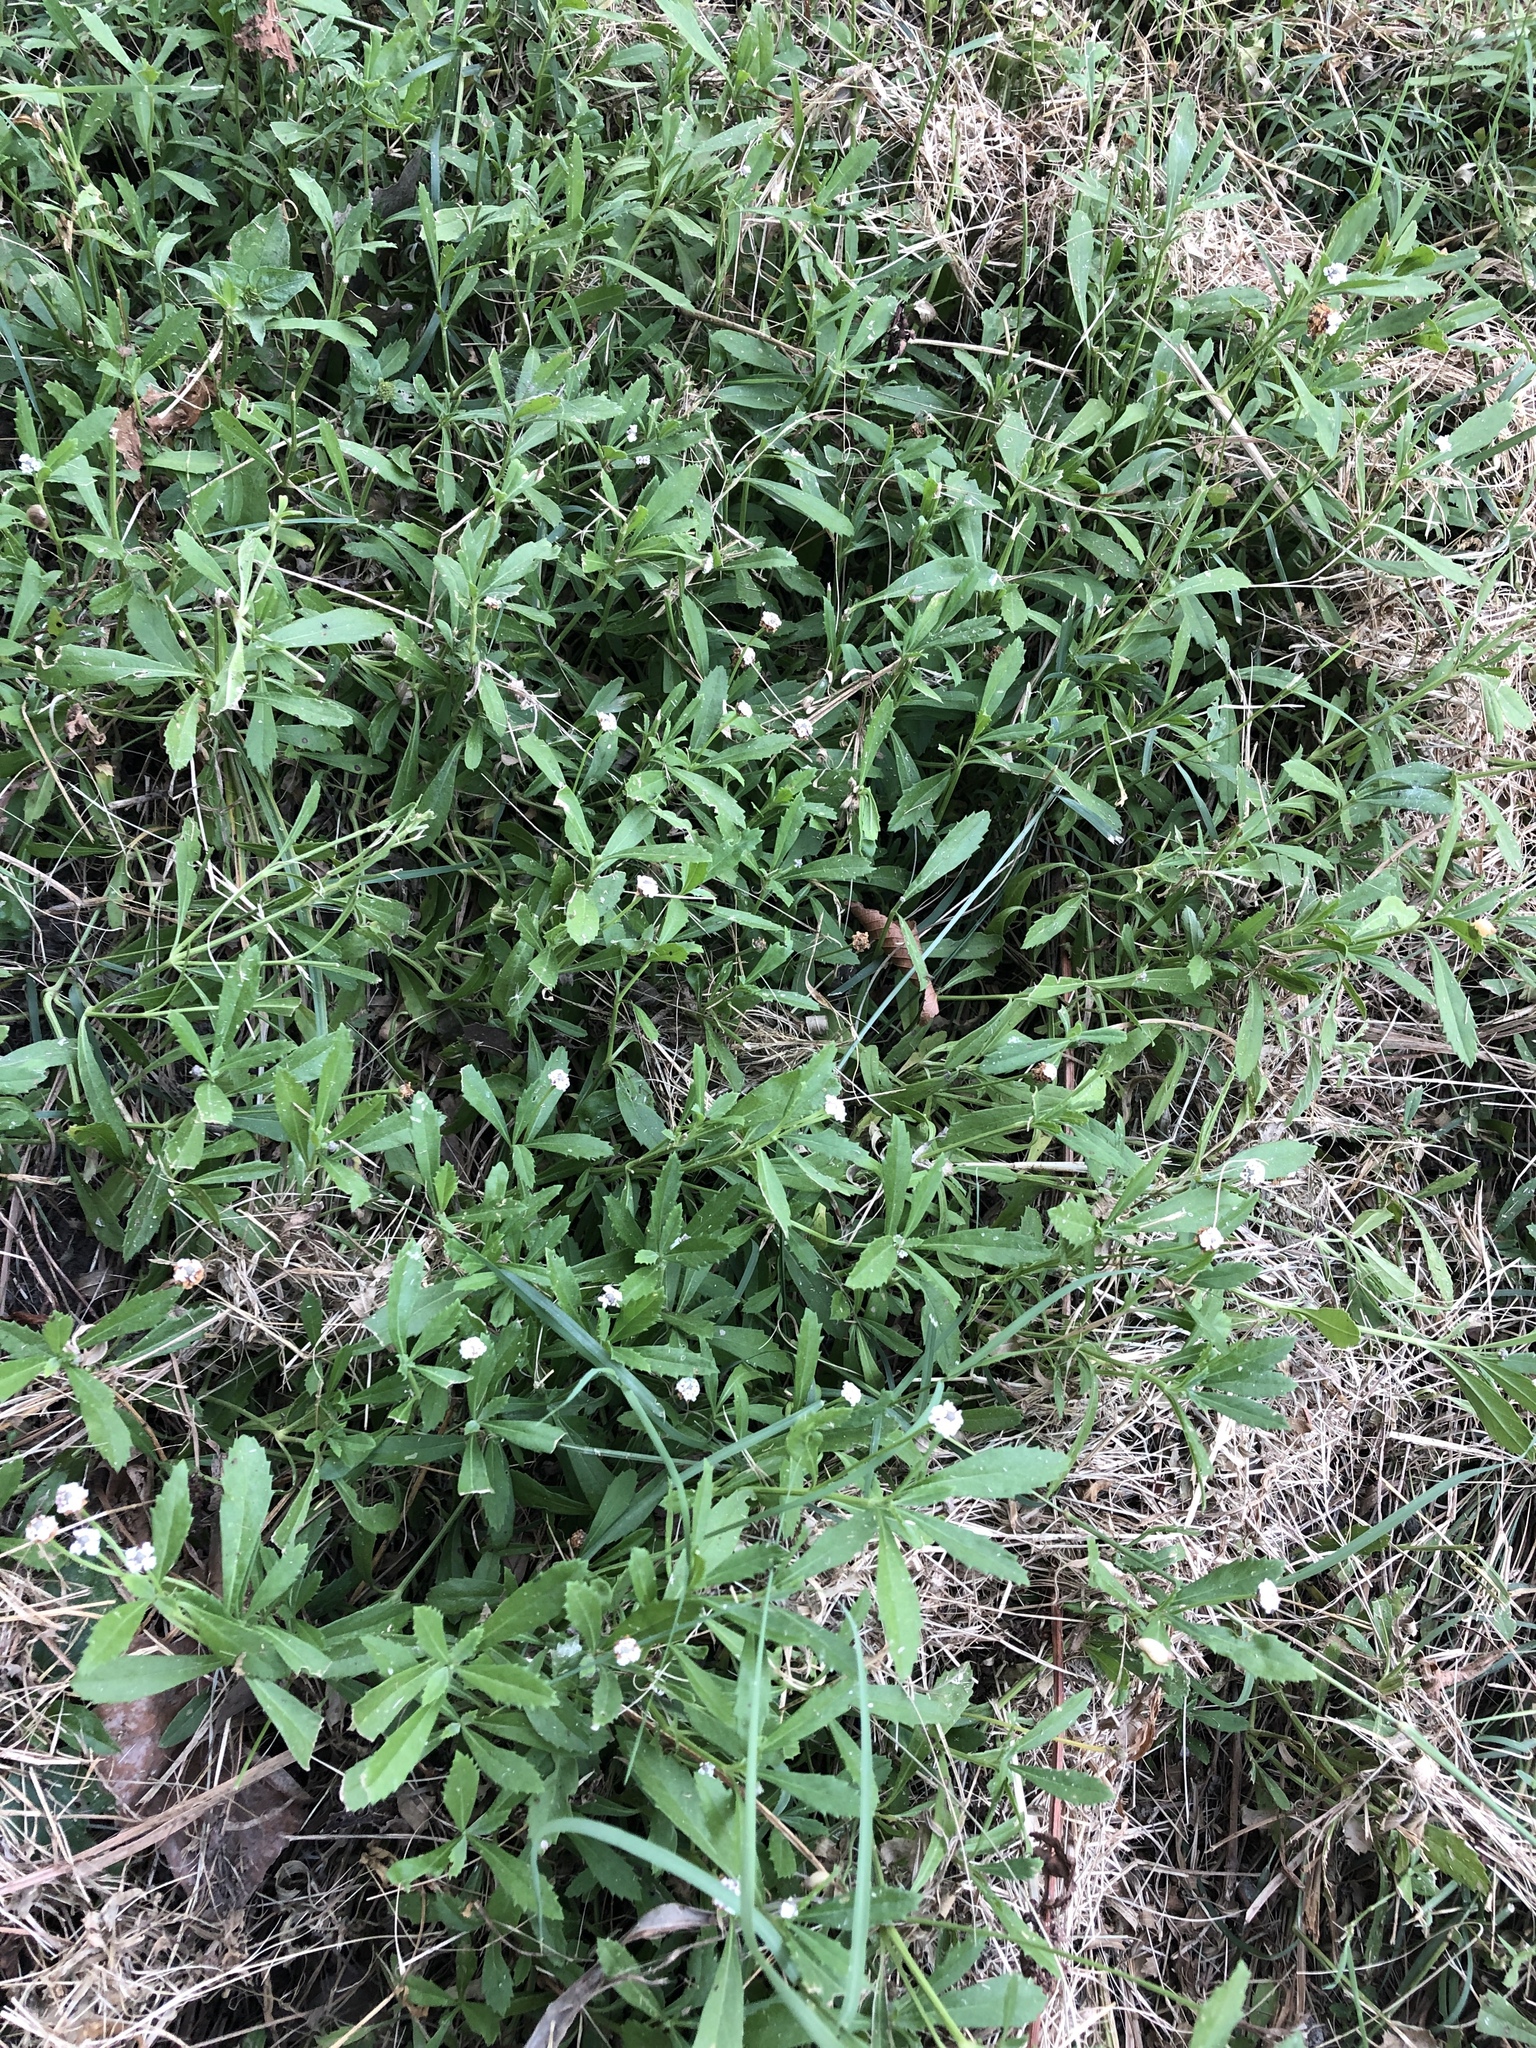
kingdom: Plantae
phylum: Tracheophyta
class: Magnoliopsida
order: Lamiales
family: Verbenaceae
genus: Phyla
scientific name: Phyla nodiflora
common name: Frogfruit
